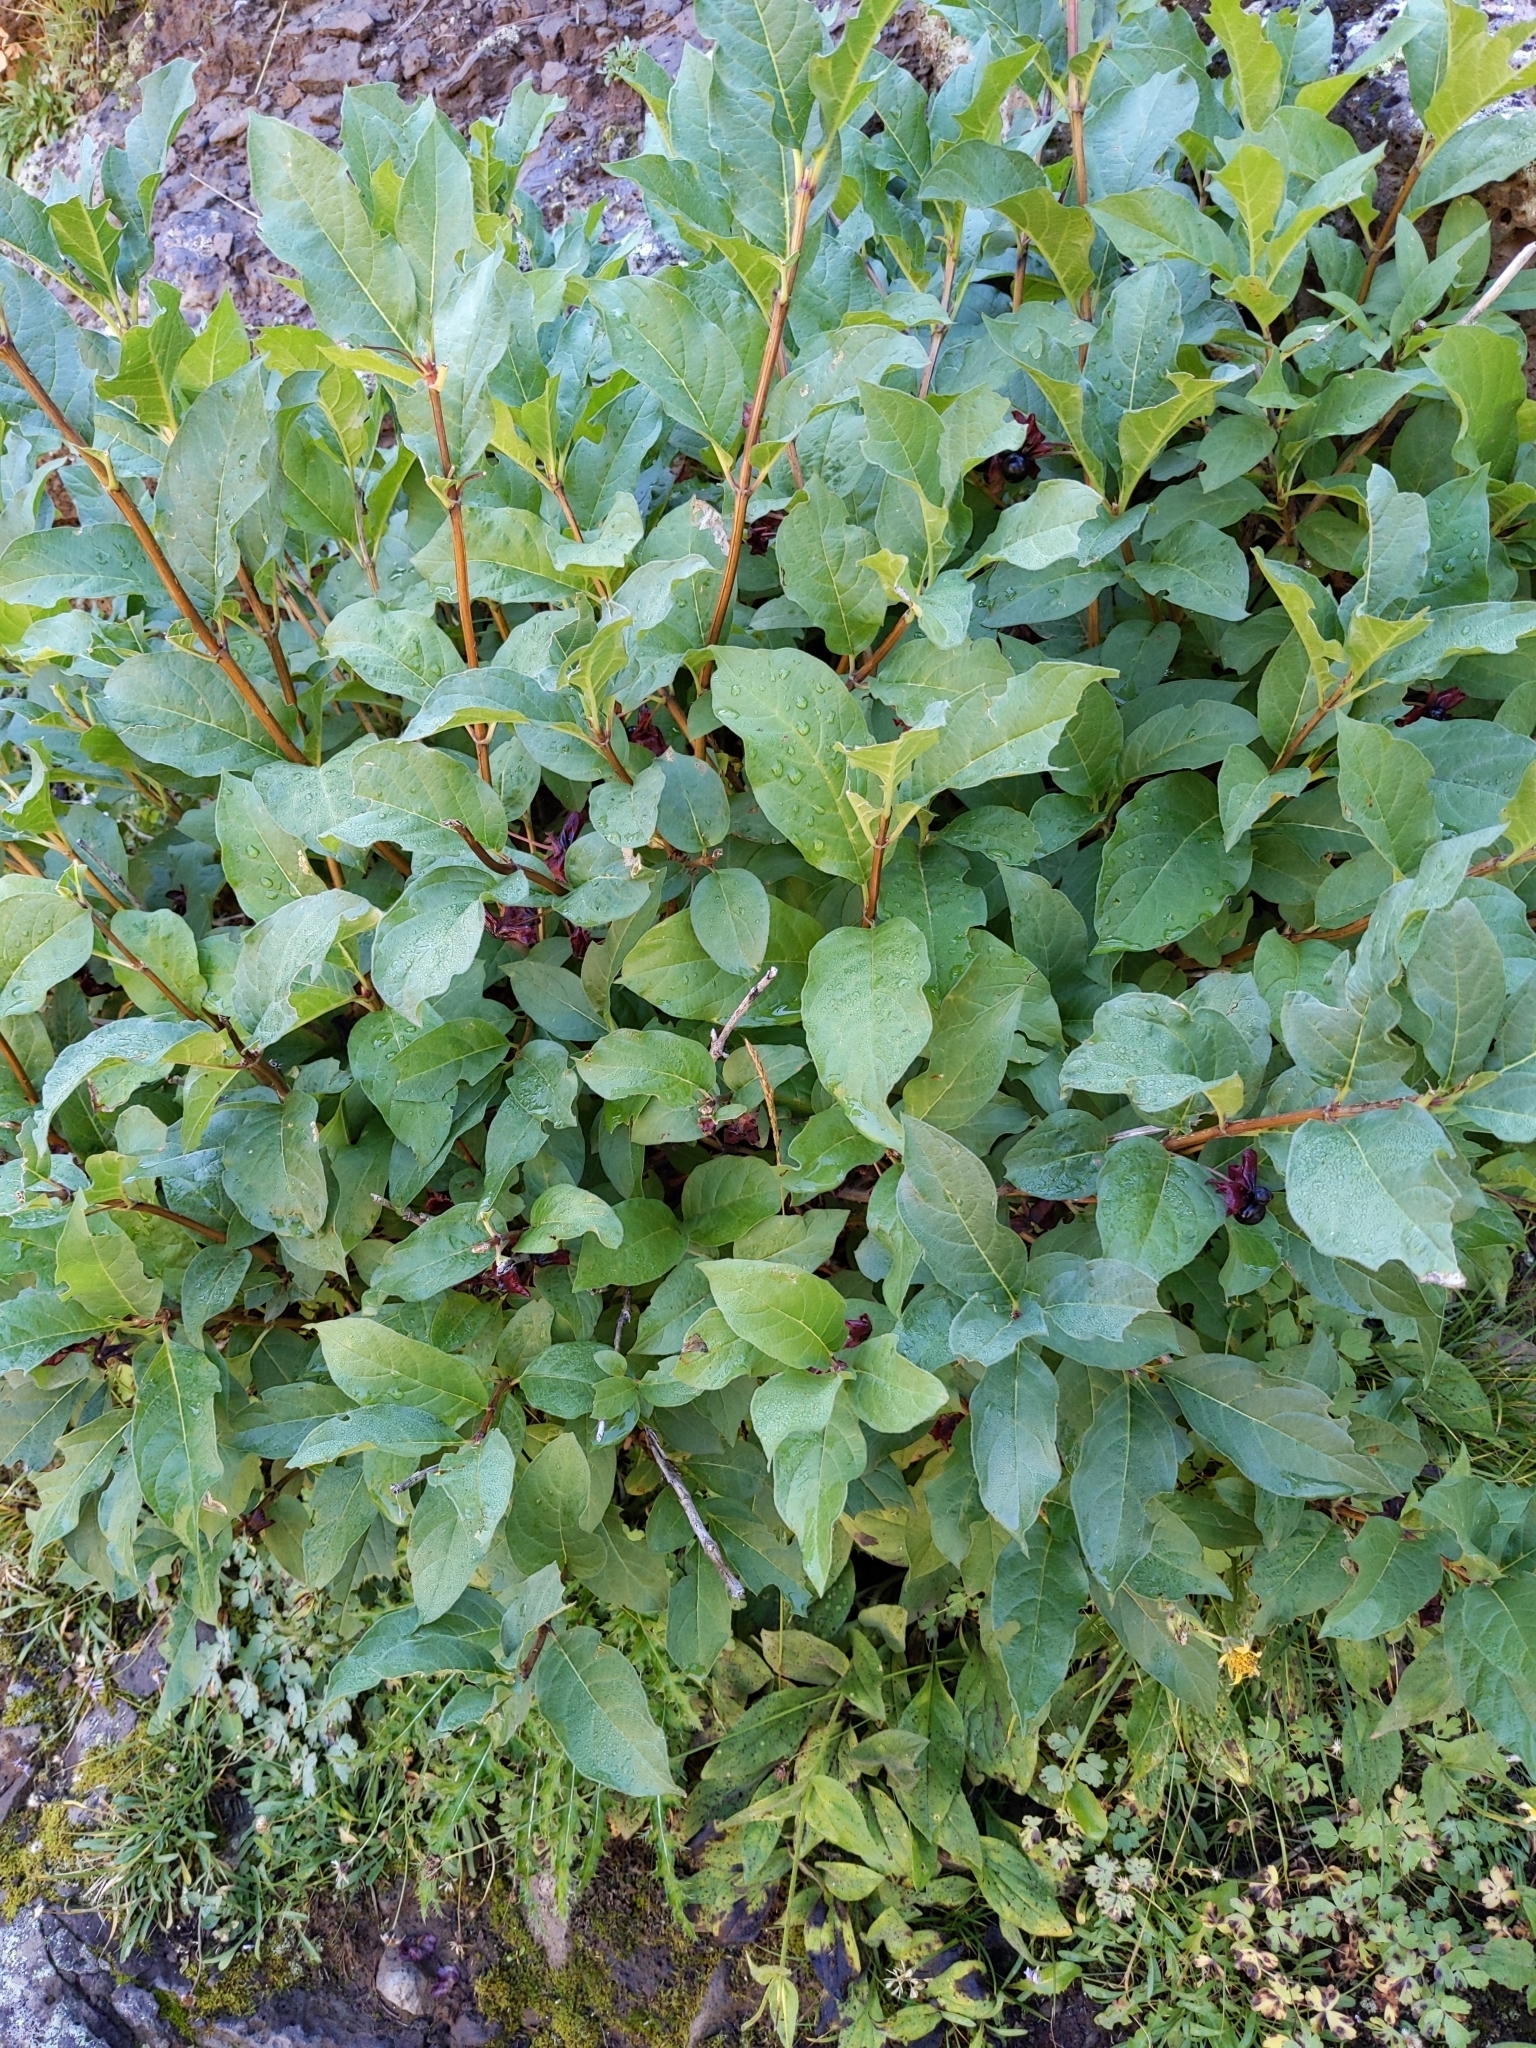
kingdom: Plantae
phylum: Tracheophyta
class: Magnoliopsida
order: Dipsacales
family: Caprifoliaceae
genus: Lonicera
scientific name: Lonicera involucrata
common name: Californian honeysuckle
